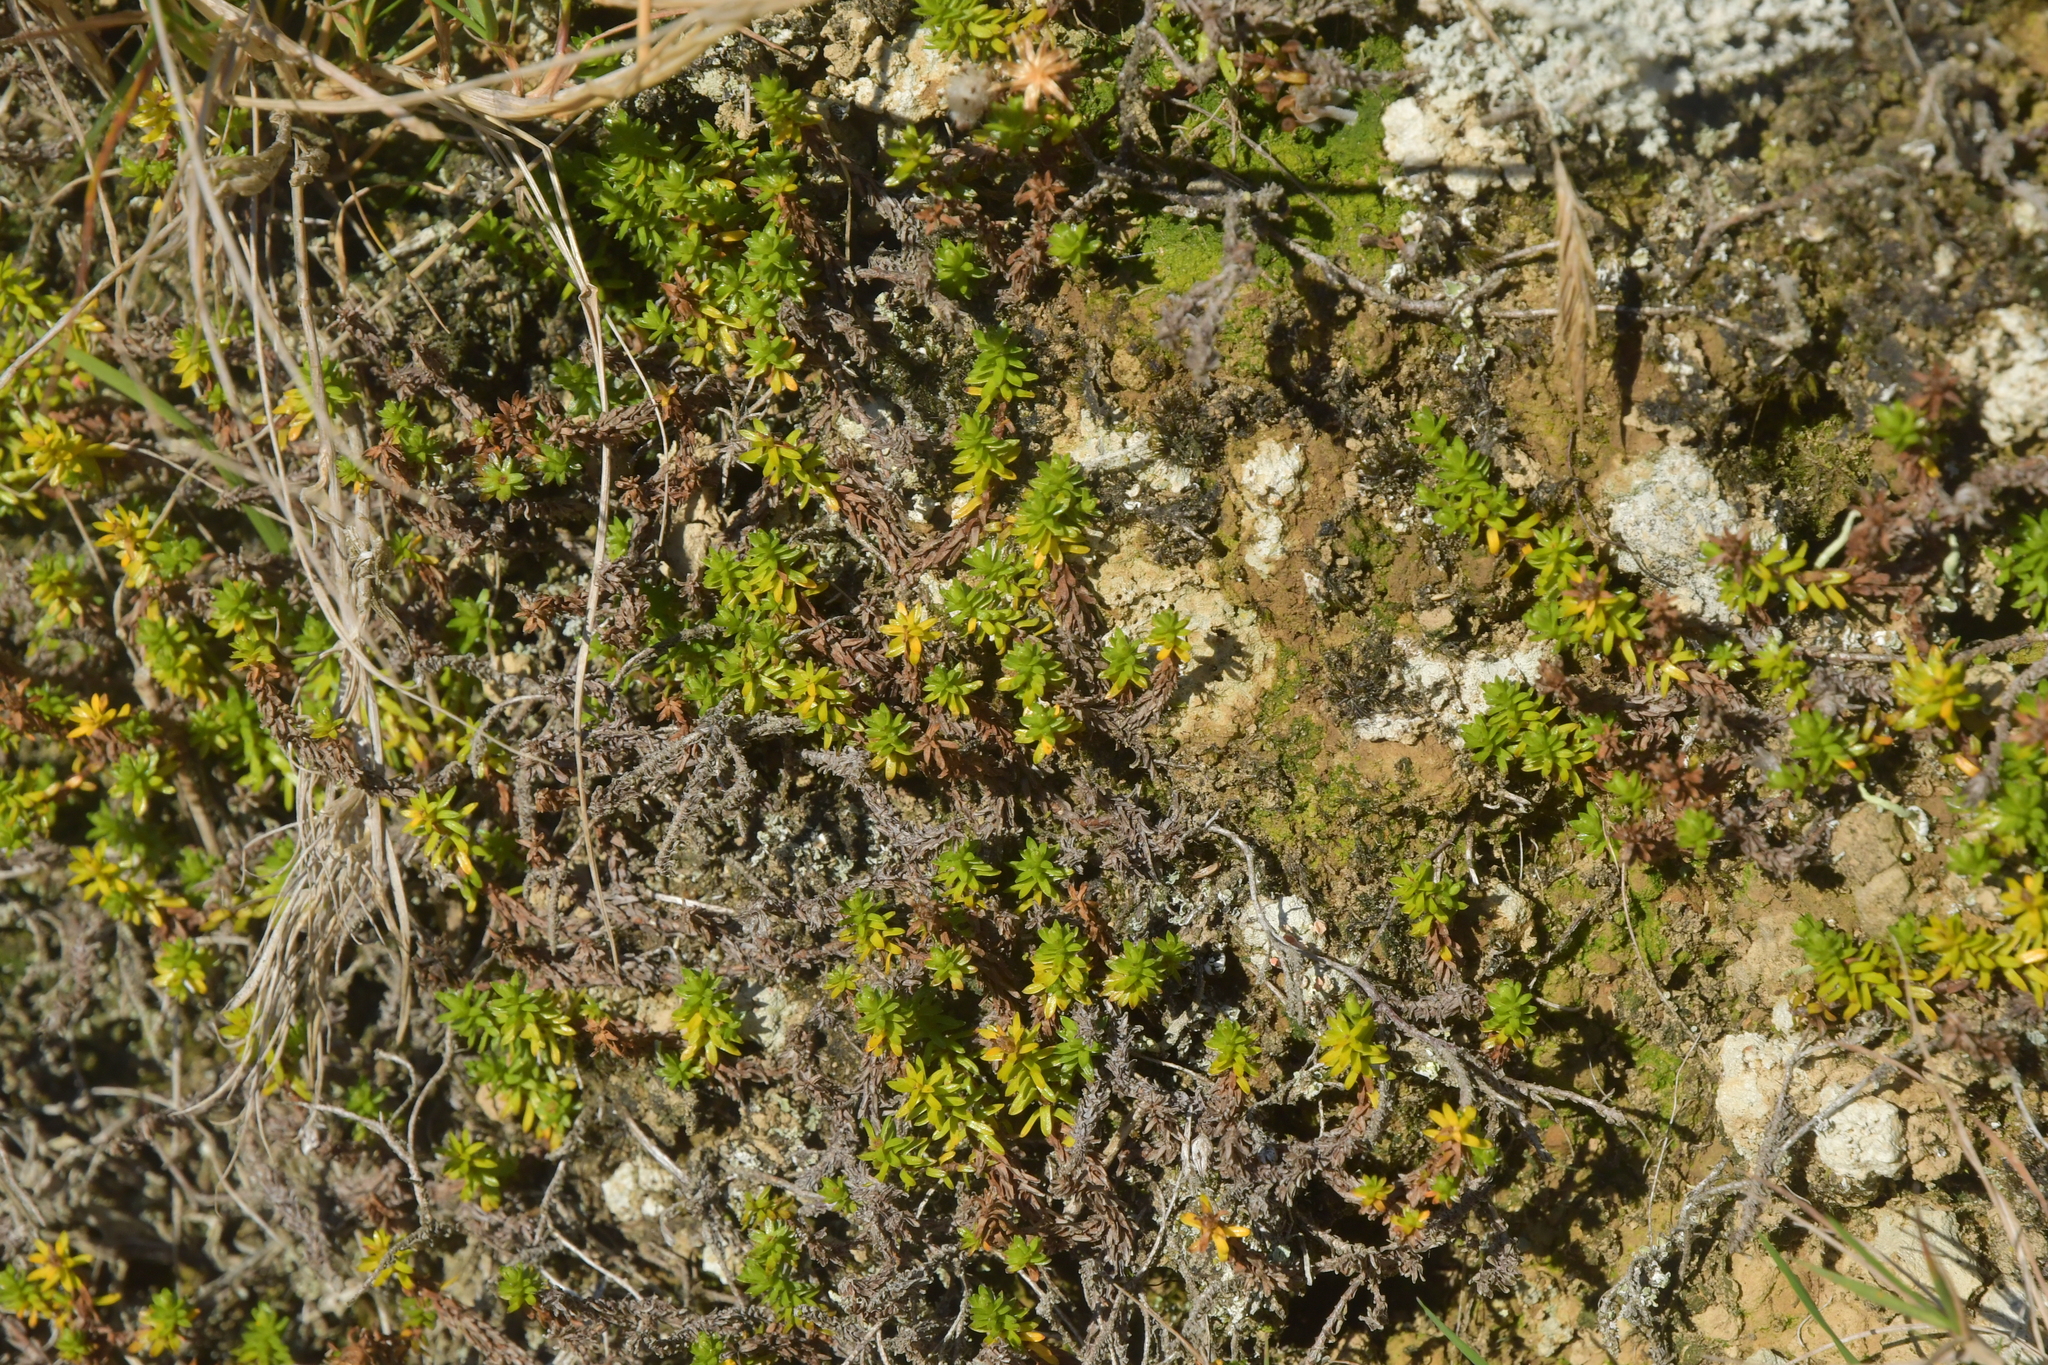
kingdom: Plantae
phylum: Tracheophyta
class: Magnoliopsida
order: Asterales
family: Asteraceae
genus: Raoulia
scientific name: Raoulia glabra
